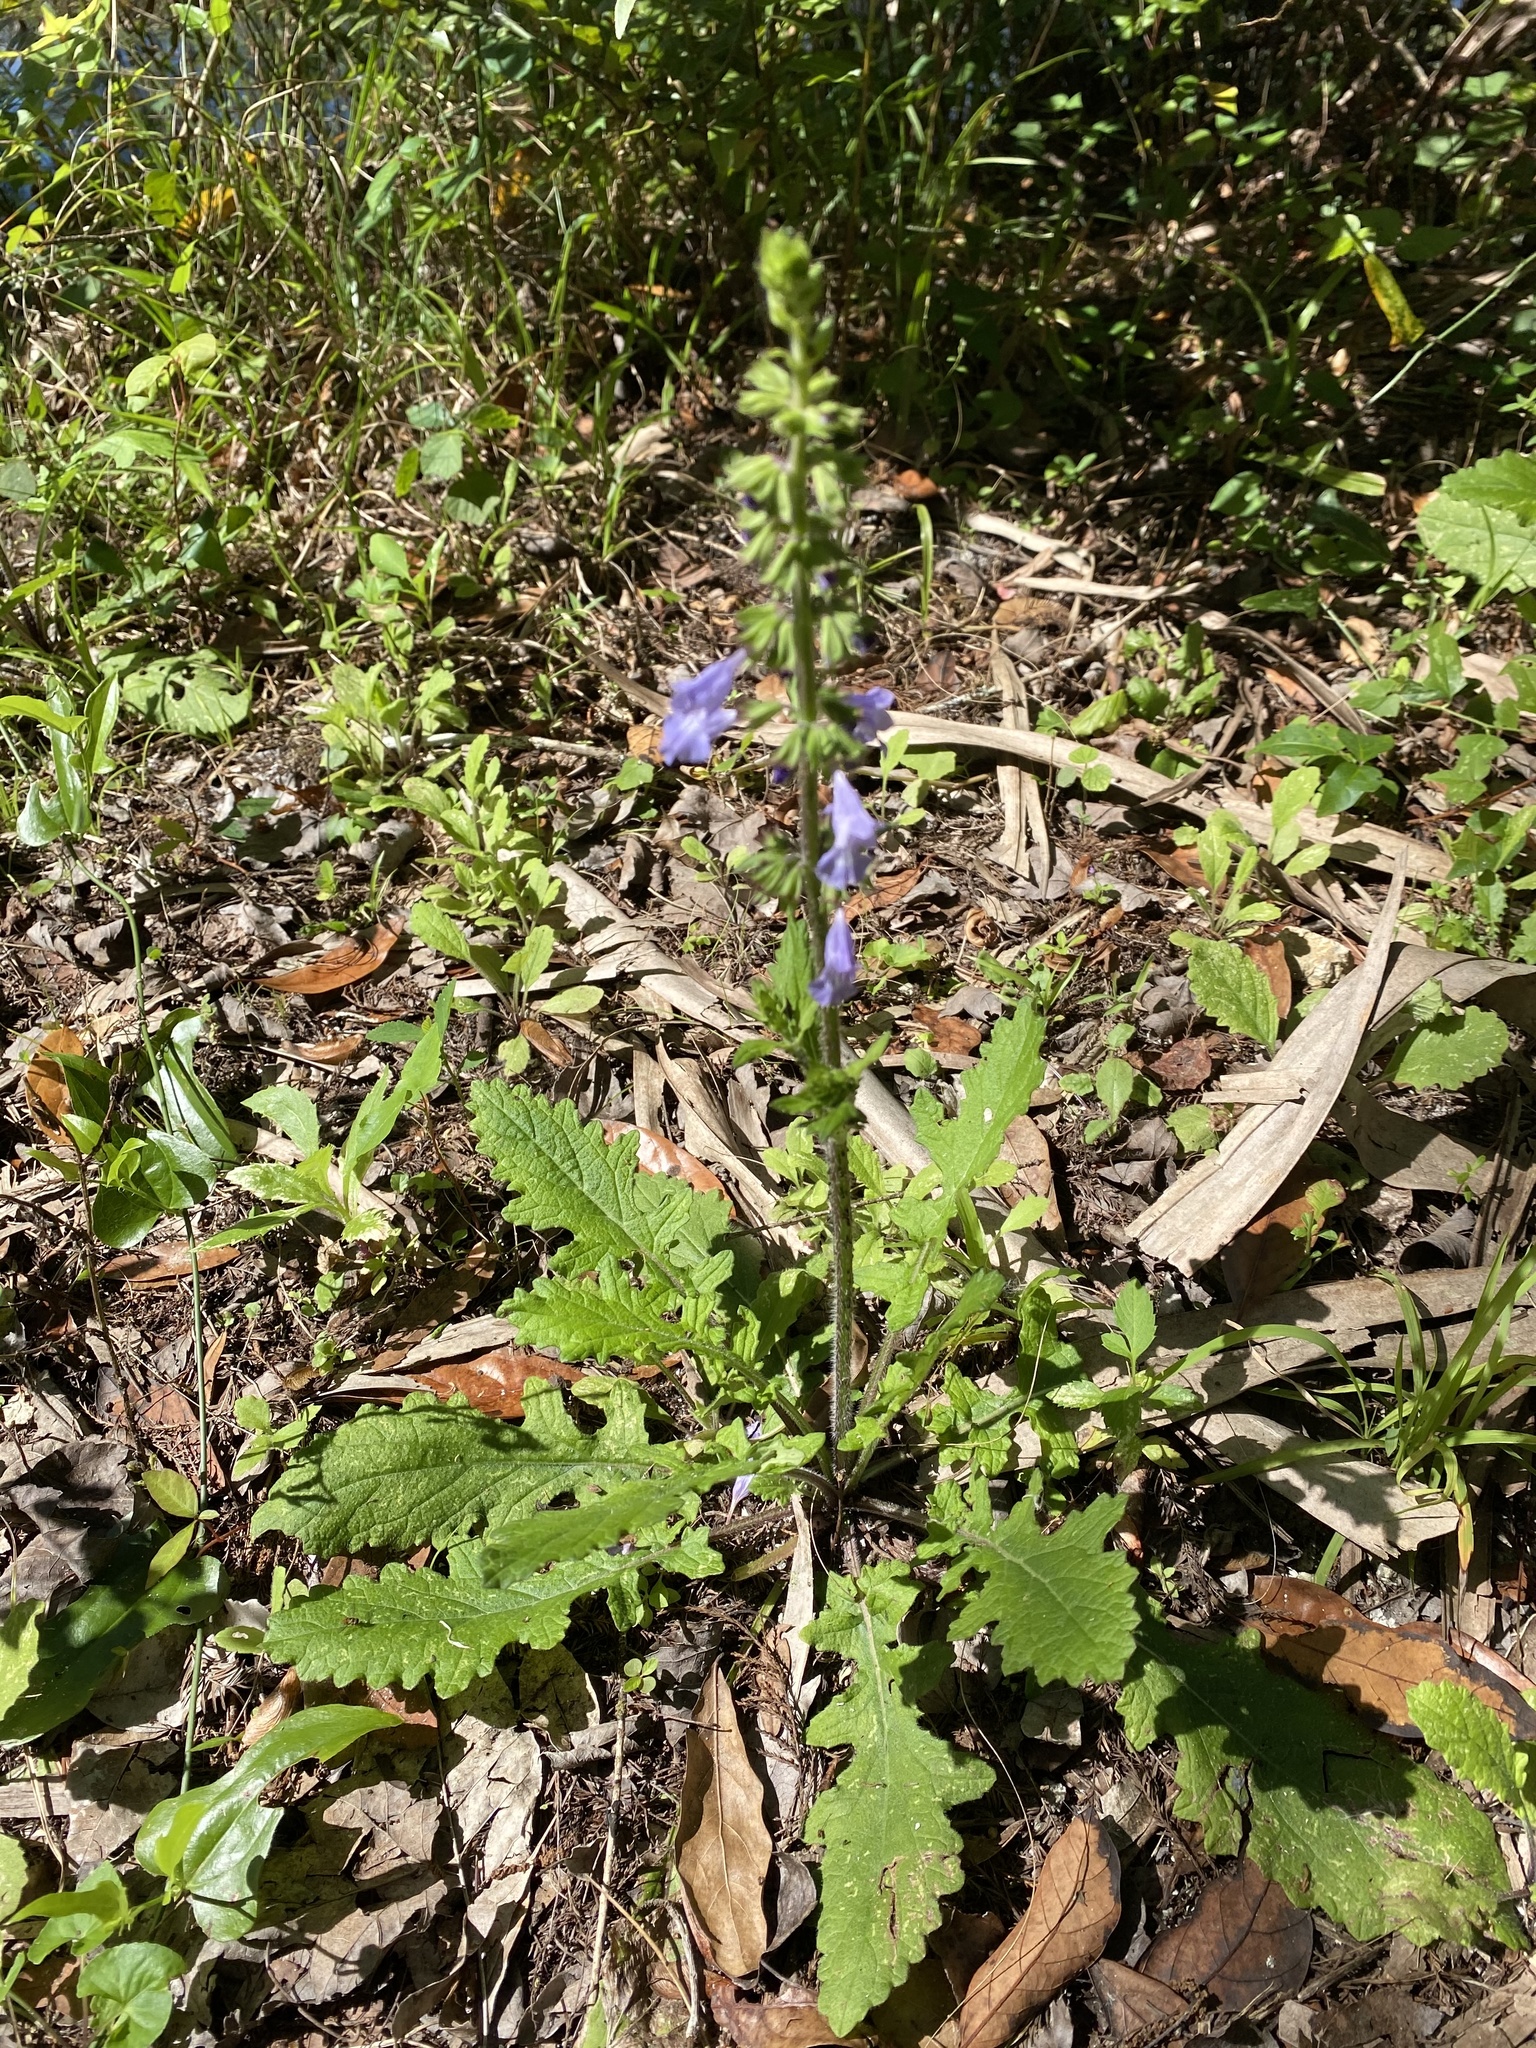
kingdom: Plantae
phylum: Tracheophyta
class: Magnoliopsida
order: Lamiales
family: Lamiaceae
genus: Salvia
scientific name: Salvia lyrata
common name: Cancerweed
